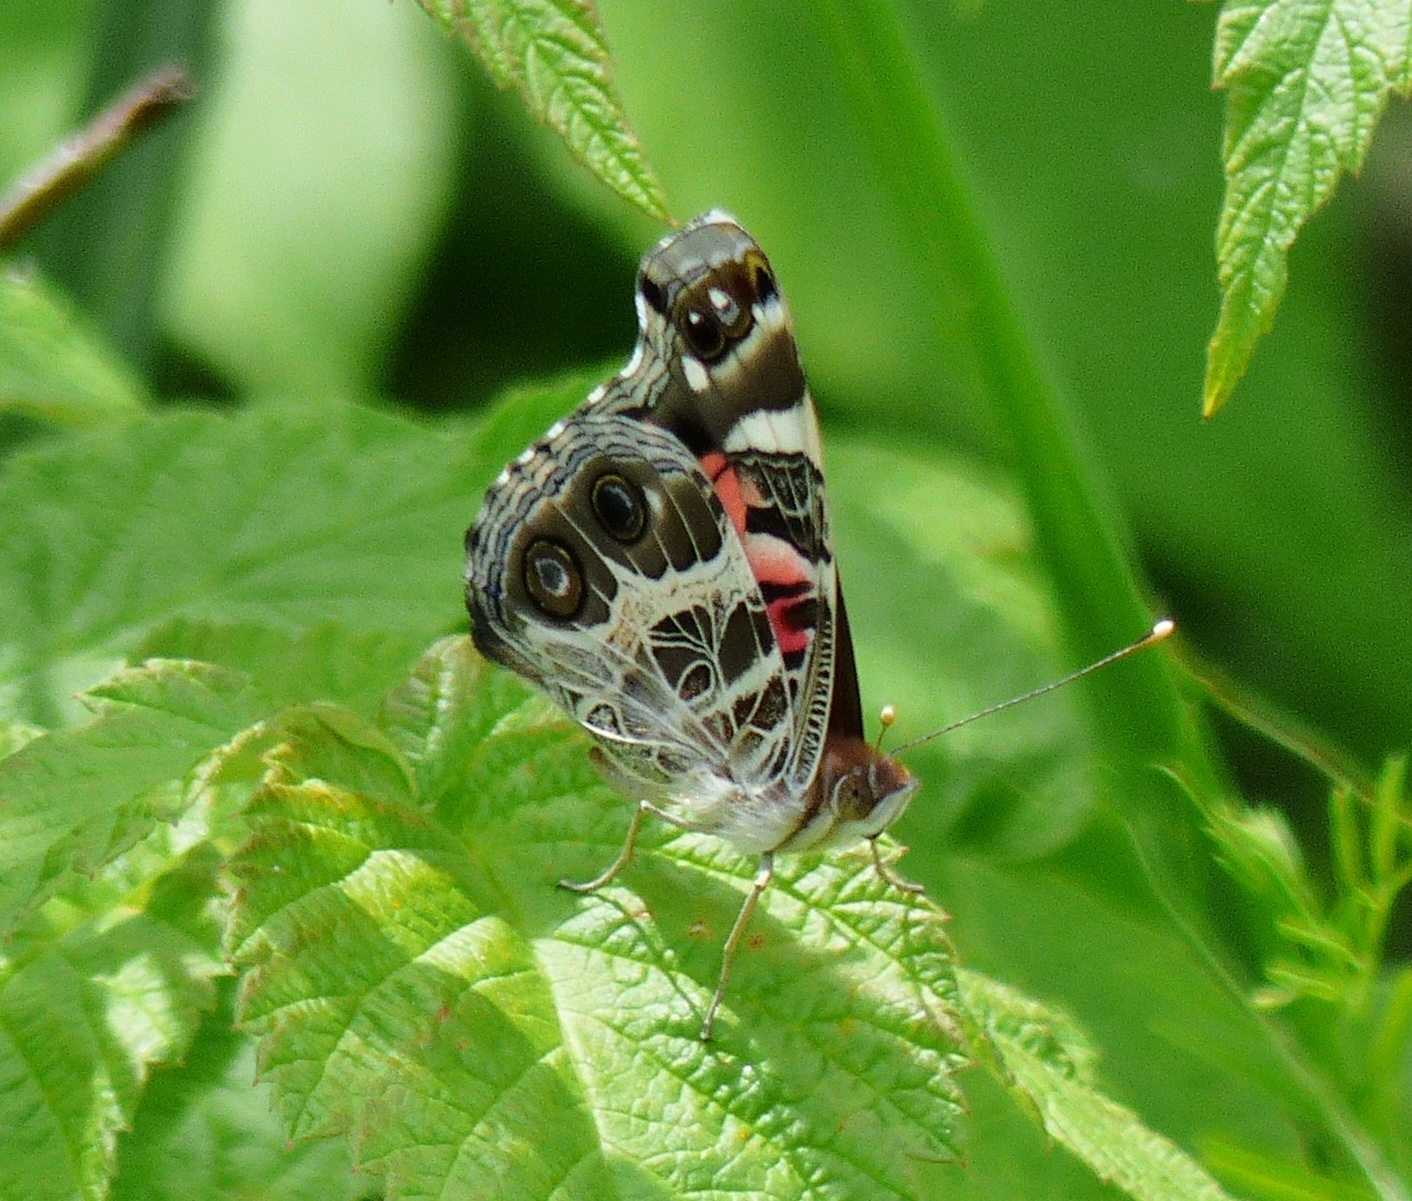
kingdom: Animalia
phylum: Arthropoda
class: Insecta
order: Lepidoptera
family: Nymphalidae
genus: Vanessa
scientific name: Vanessa virginiensis
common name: American lady
